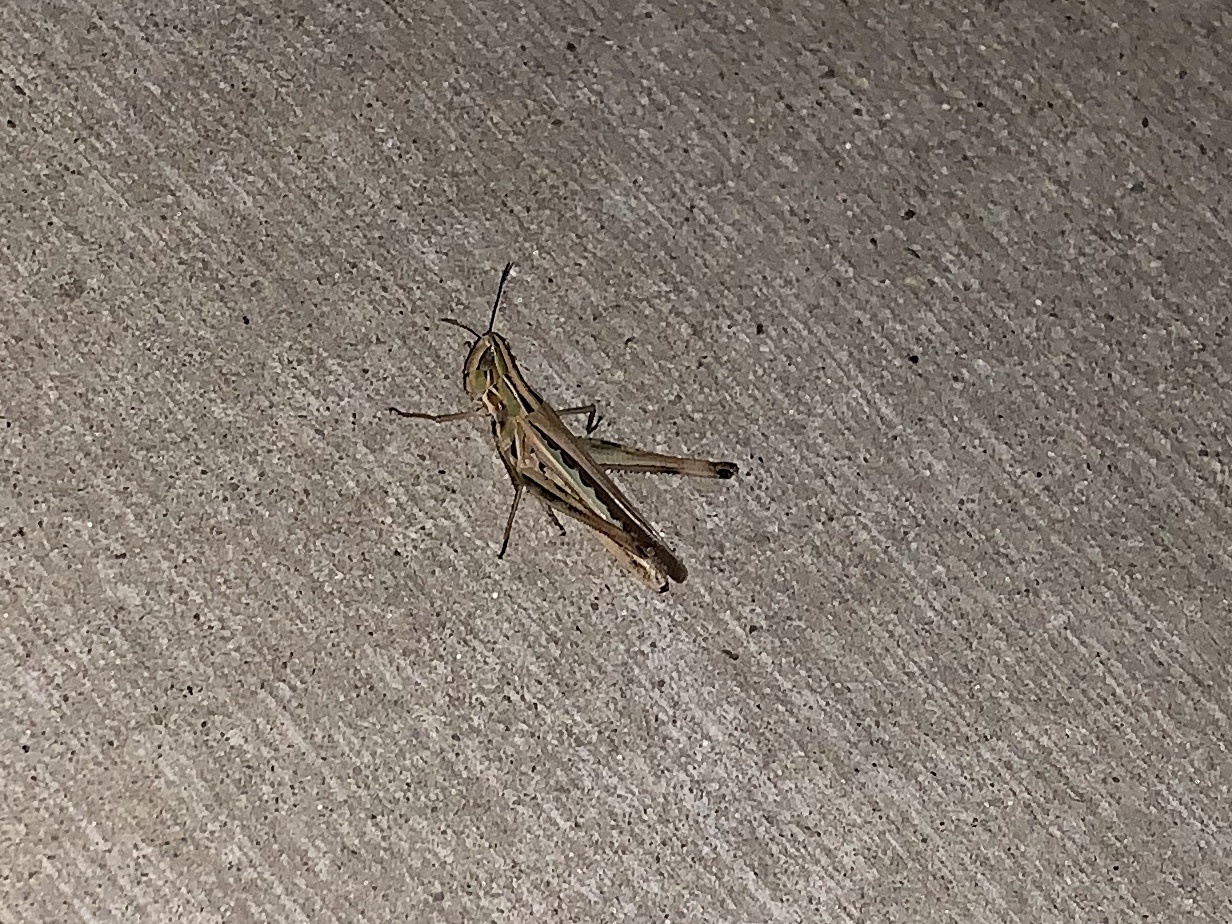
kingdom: Animalia
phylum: Arthropoda
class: Insecta
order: Orthoptera
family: Acrididae
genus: Syrbula
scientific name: Syrbula admirabilis
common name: Handsome grasshopper
